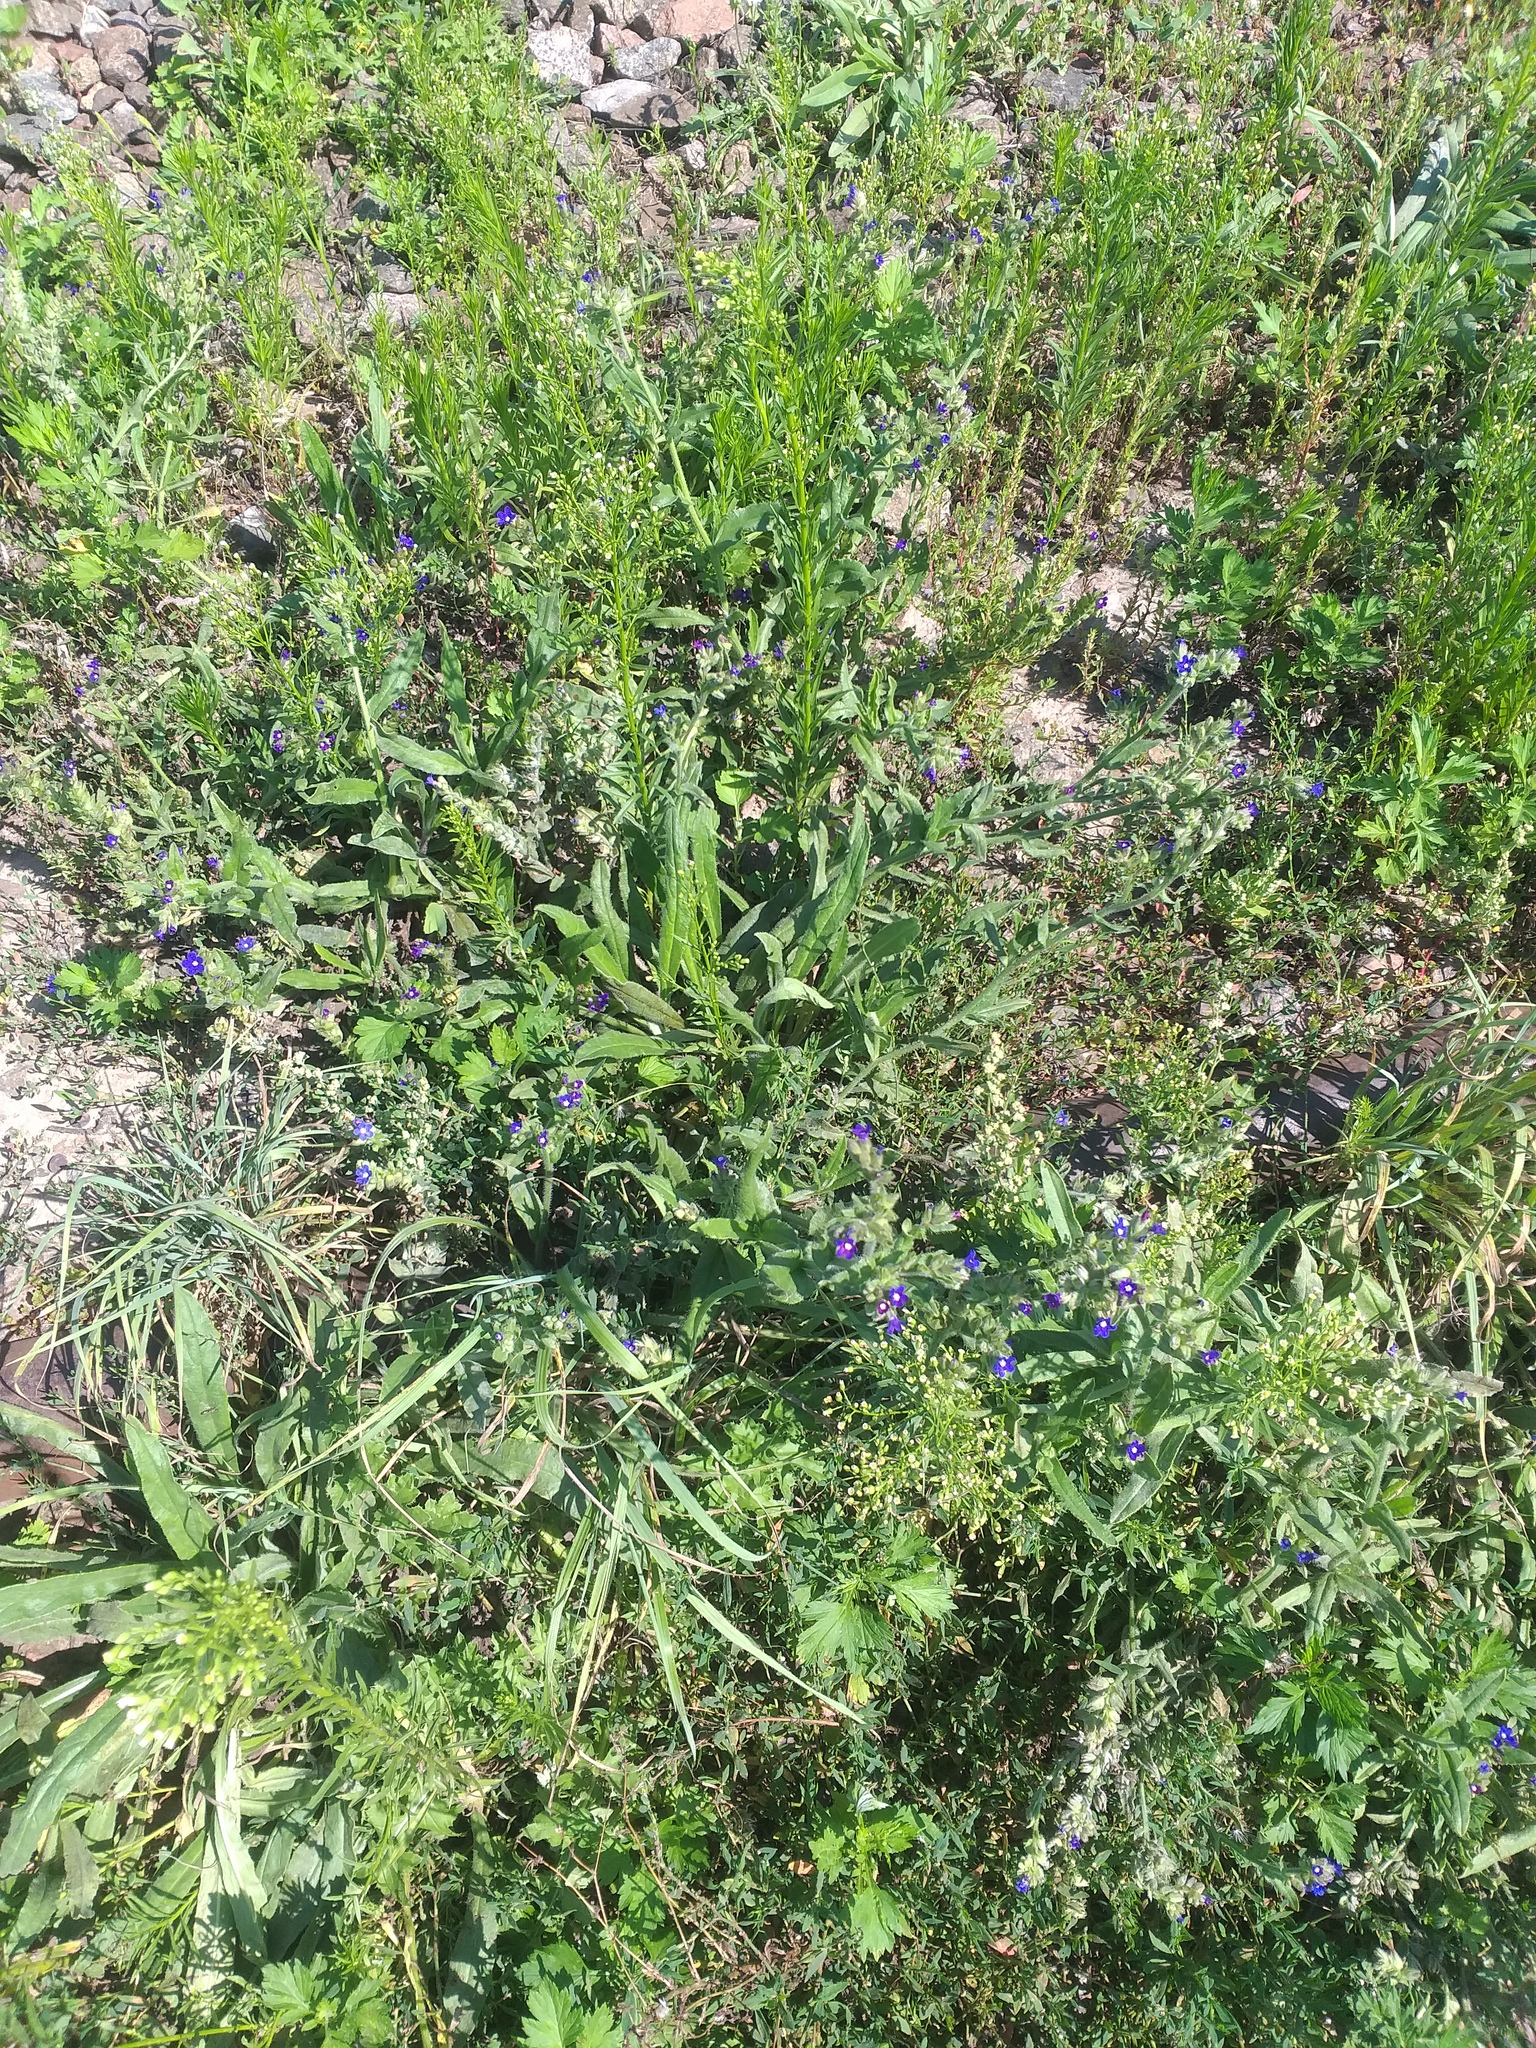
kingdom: Plantae
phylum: Tracheophyta
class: Magnoliopsida
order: Boraginales
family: Boraginaceae
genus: Anchusa
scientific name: Anchusa officinalis
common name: Alkanet
